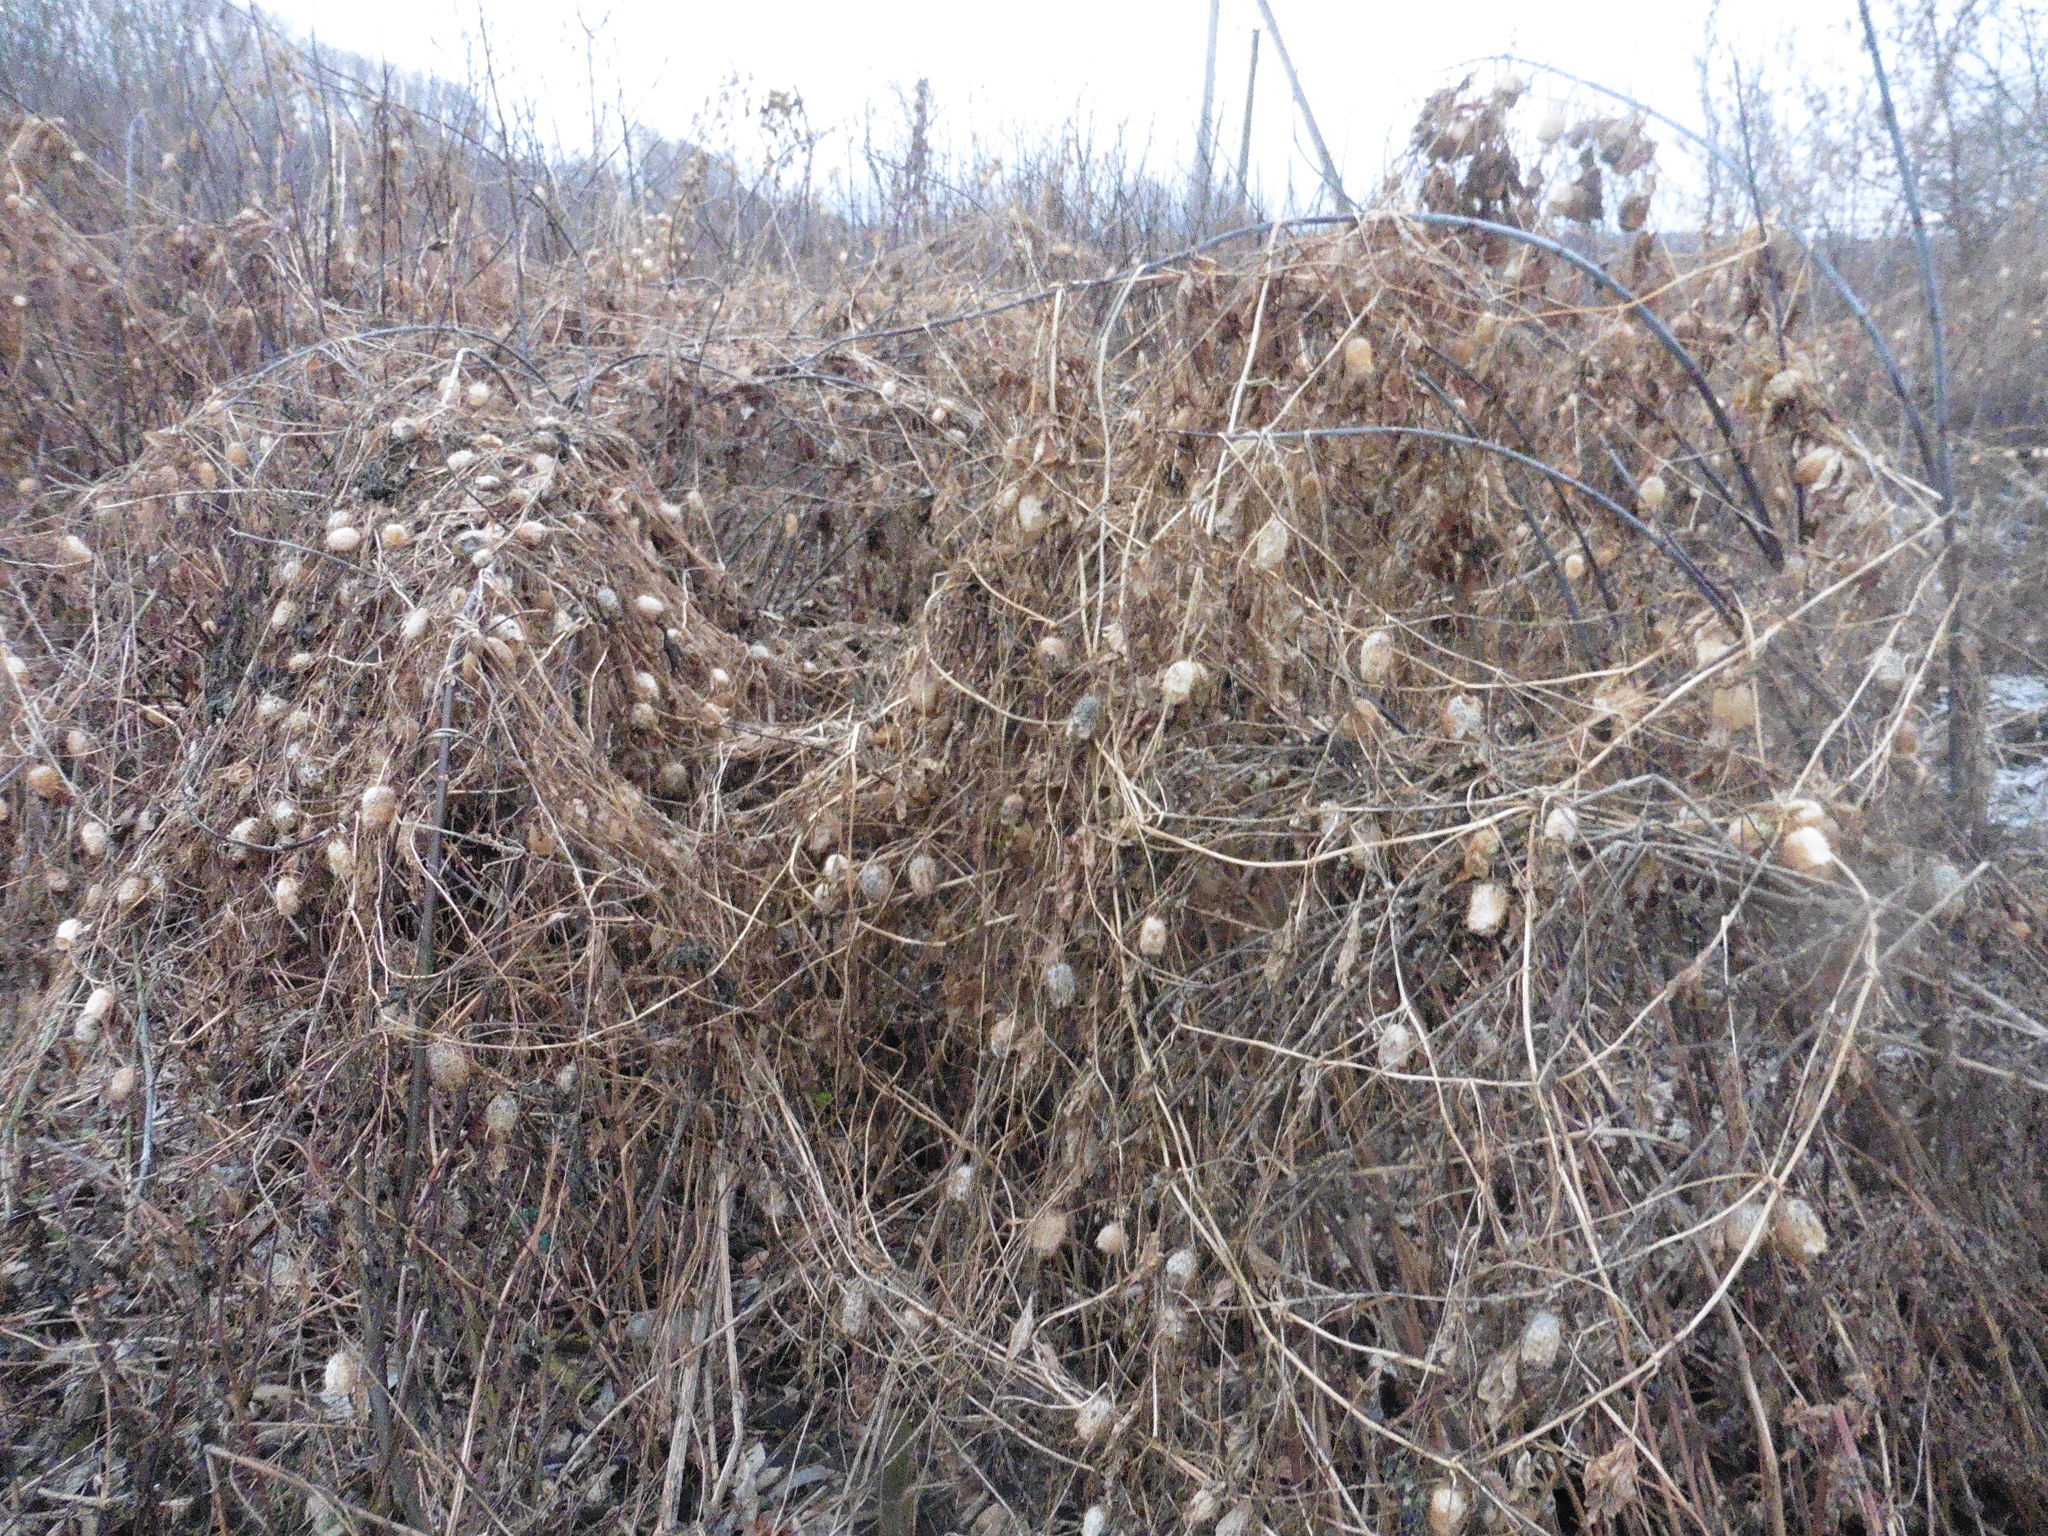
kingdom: Plantae
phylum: Tracheophyta
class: Magnoliopsida
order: Cucurbitales
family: Cucurbitaceae
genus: Echinocystis
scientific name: Echinocystis lobata
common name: Wild cucumber
